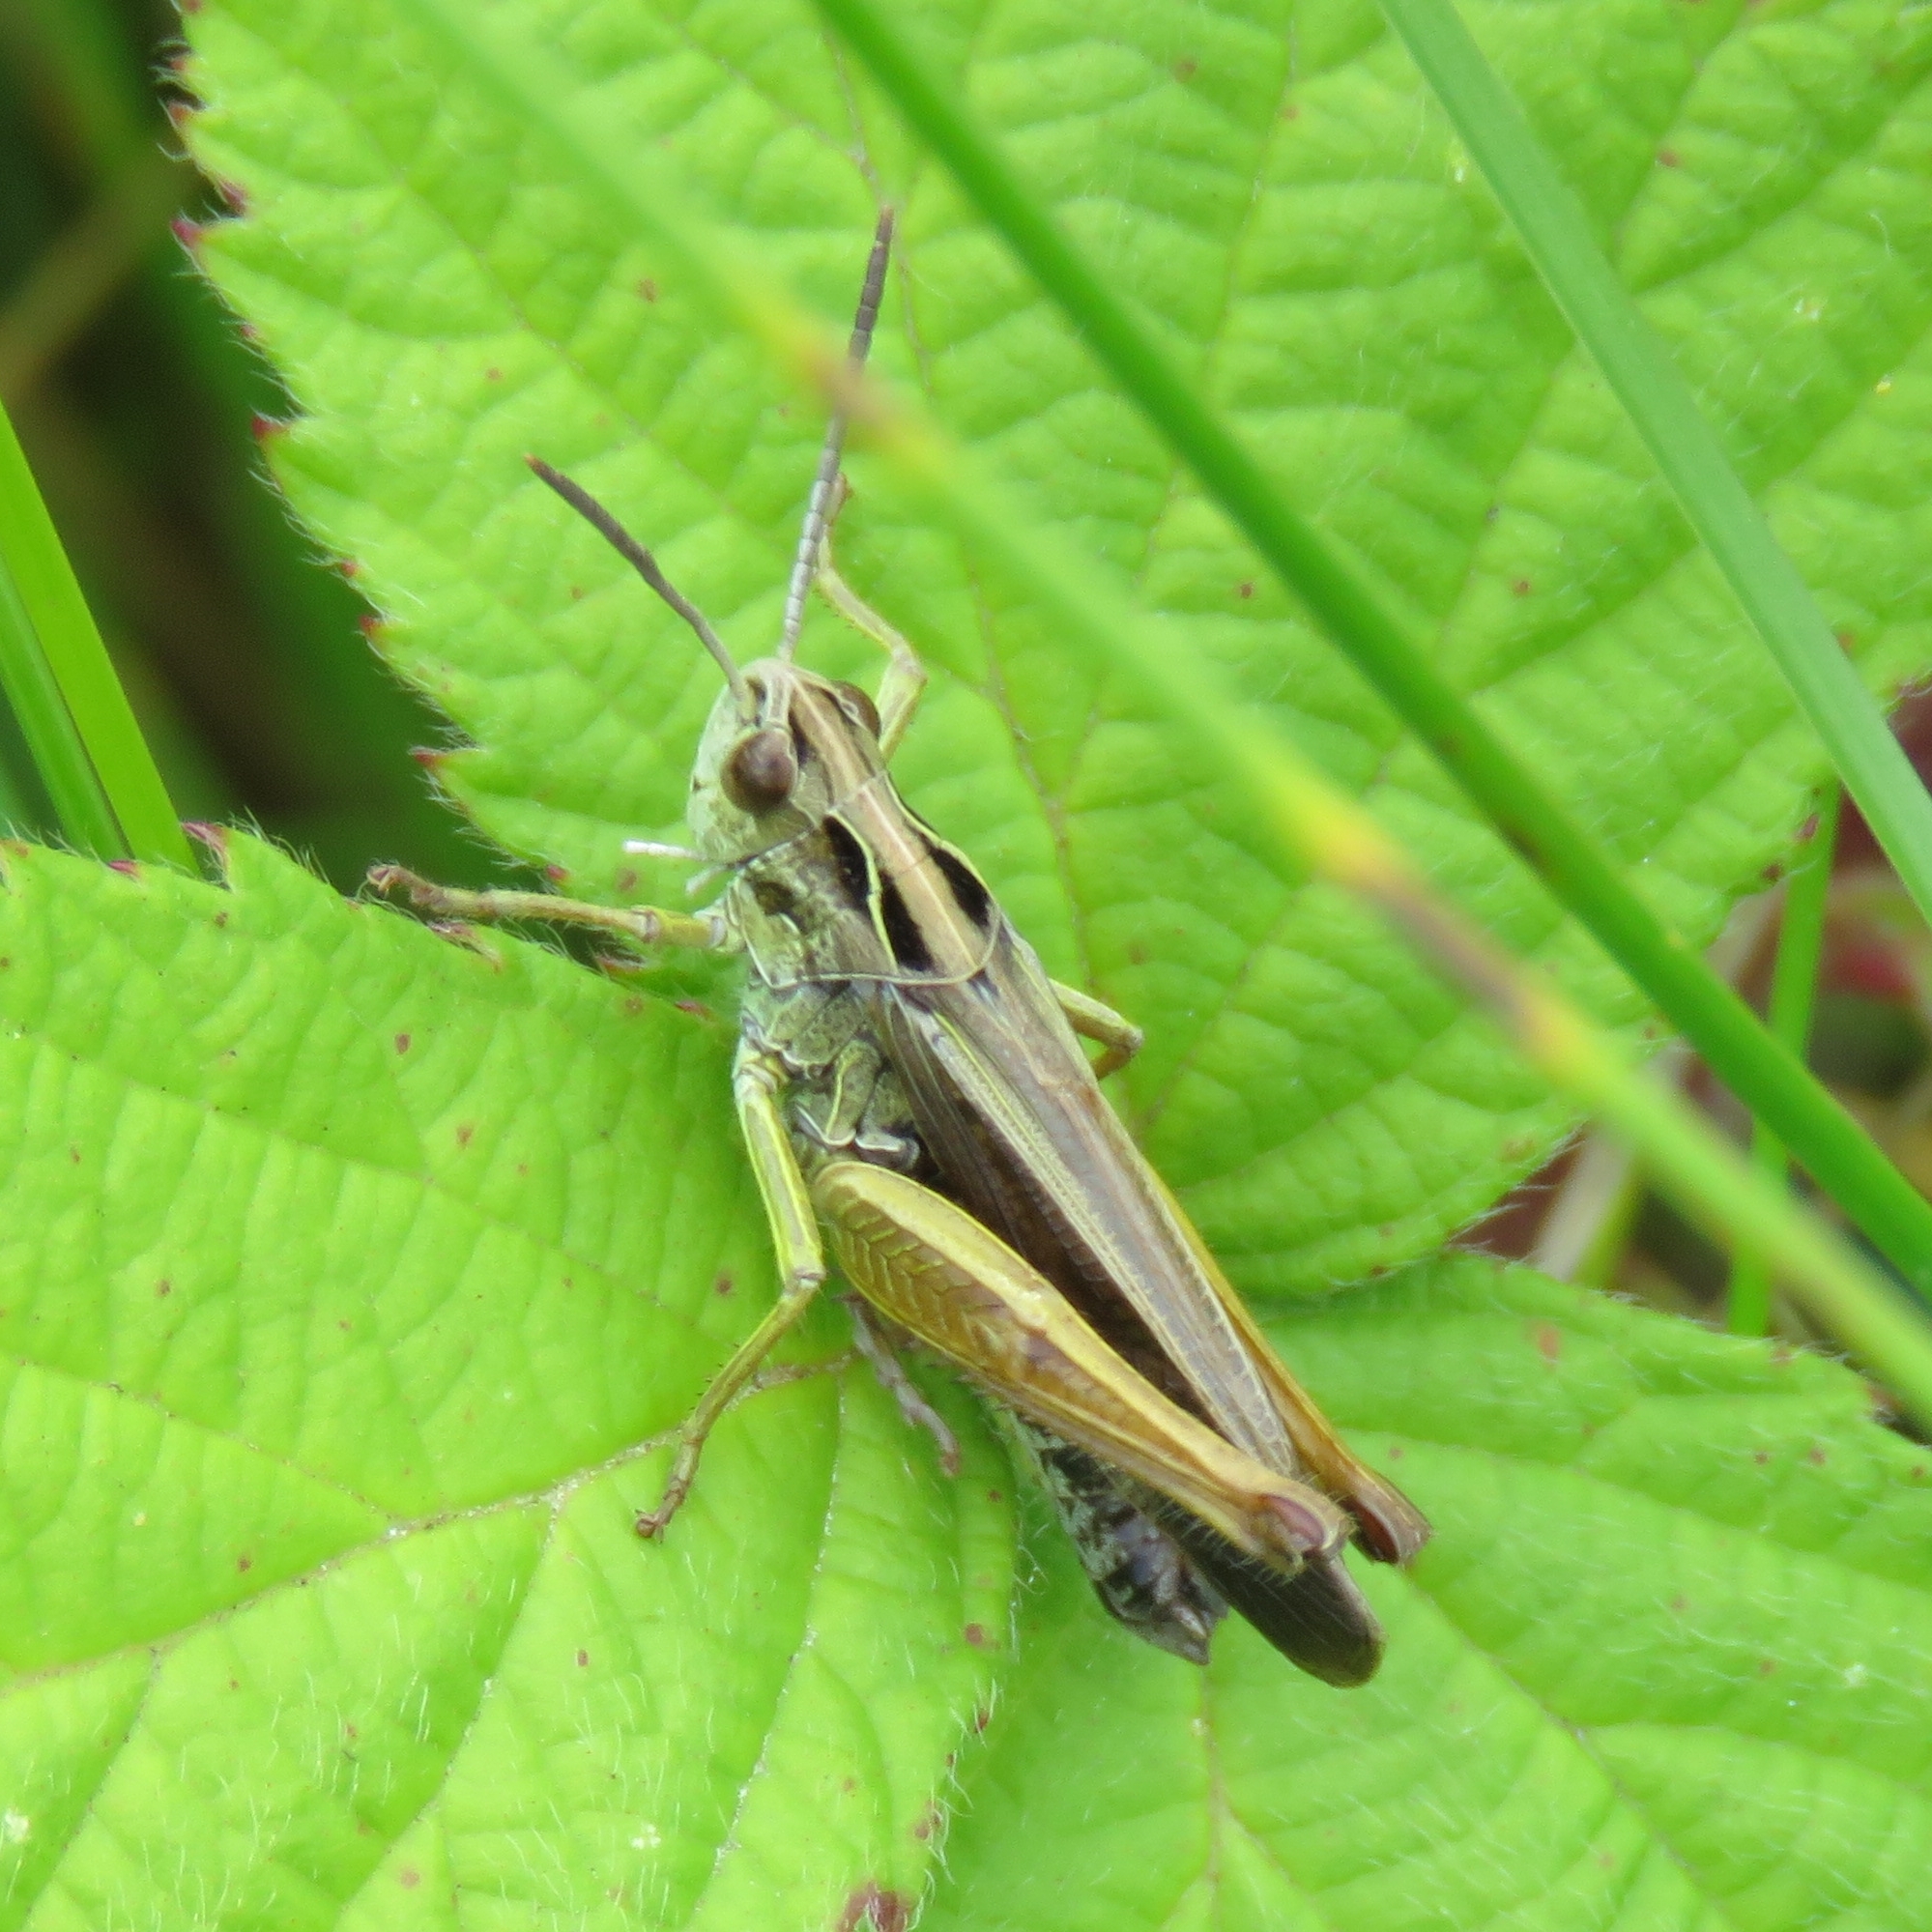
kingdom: Animalia
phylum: Arthropoda
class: Insecta
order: Orthoptera
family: Acrididae
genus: Omocestus
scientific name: Omocestus viridulus
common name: Common green grasshopper
